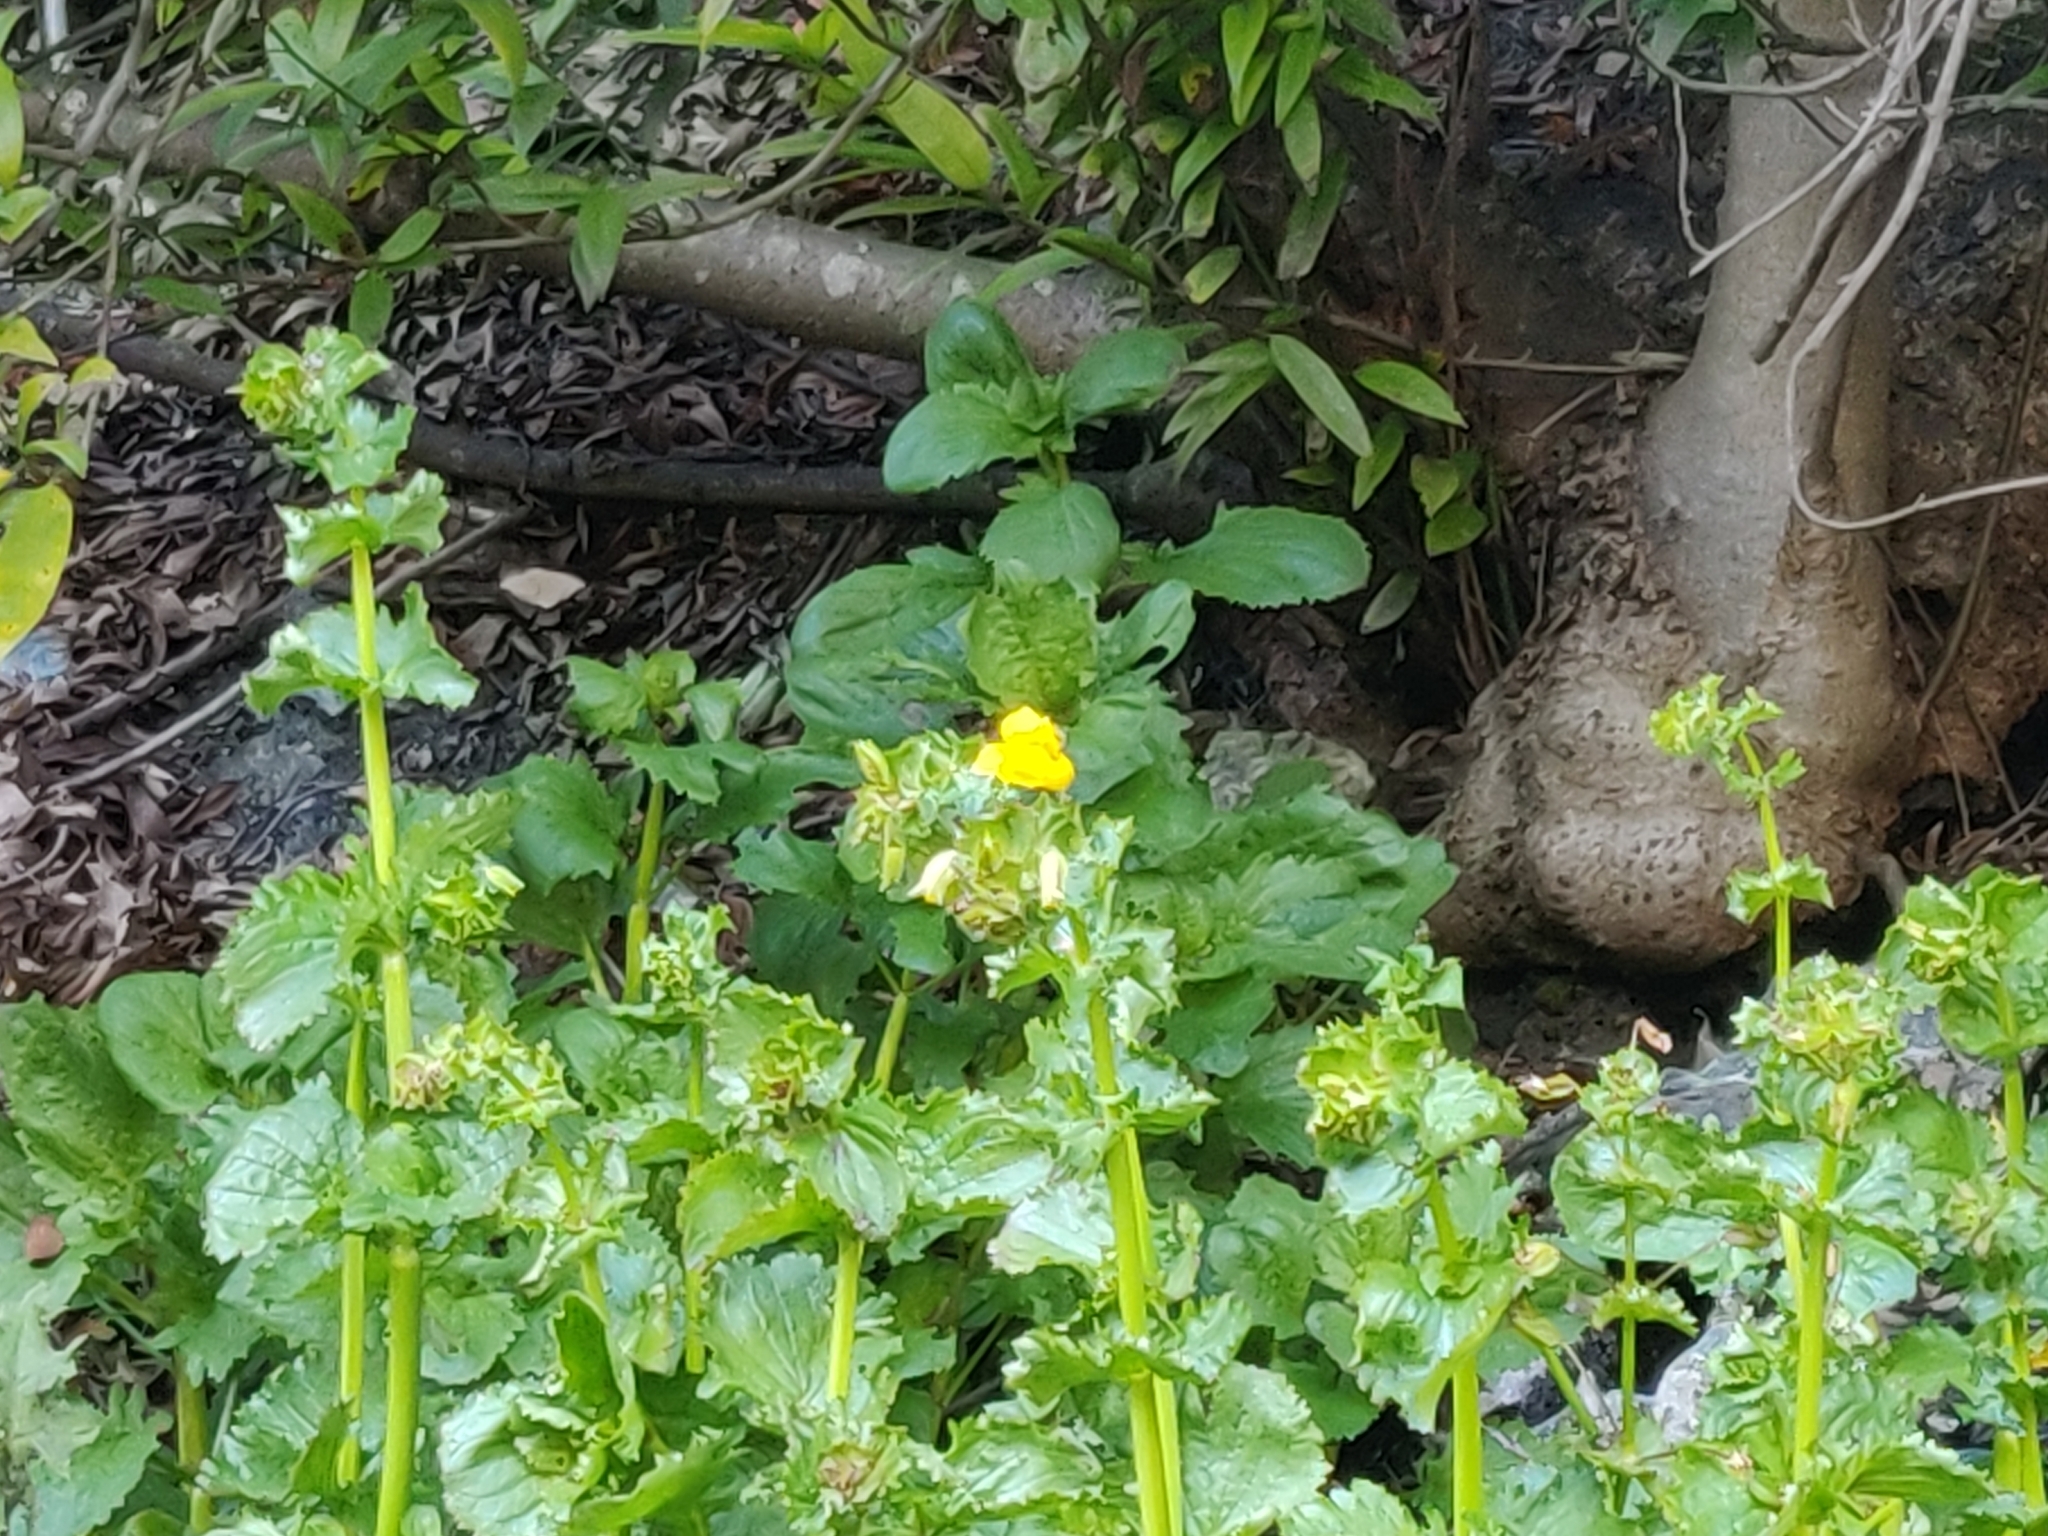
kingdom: Plantae
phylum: Tracheophyta
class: Magnoliopsida
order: Lamiales
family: Phrymaceae
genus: Erythranthe
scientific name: Erythranthe guttata
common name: Monkeyflower
